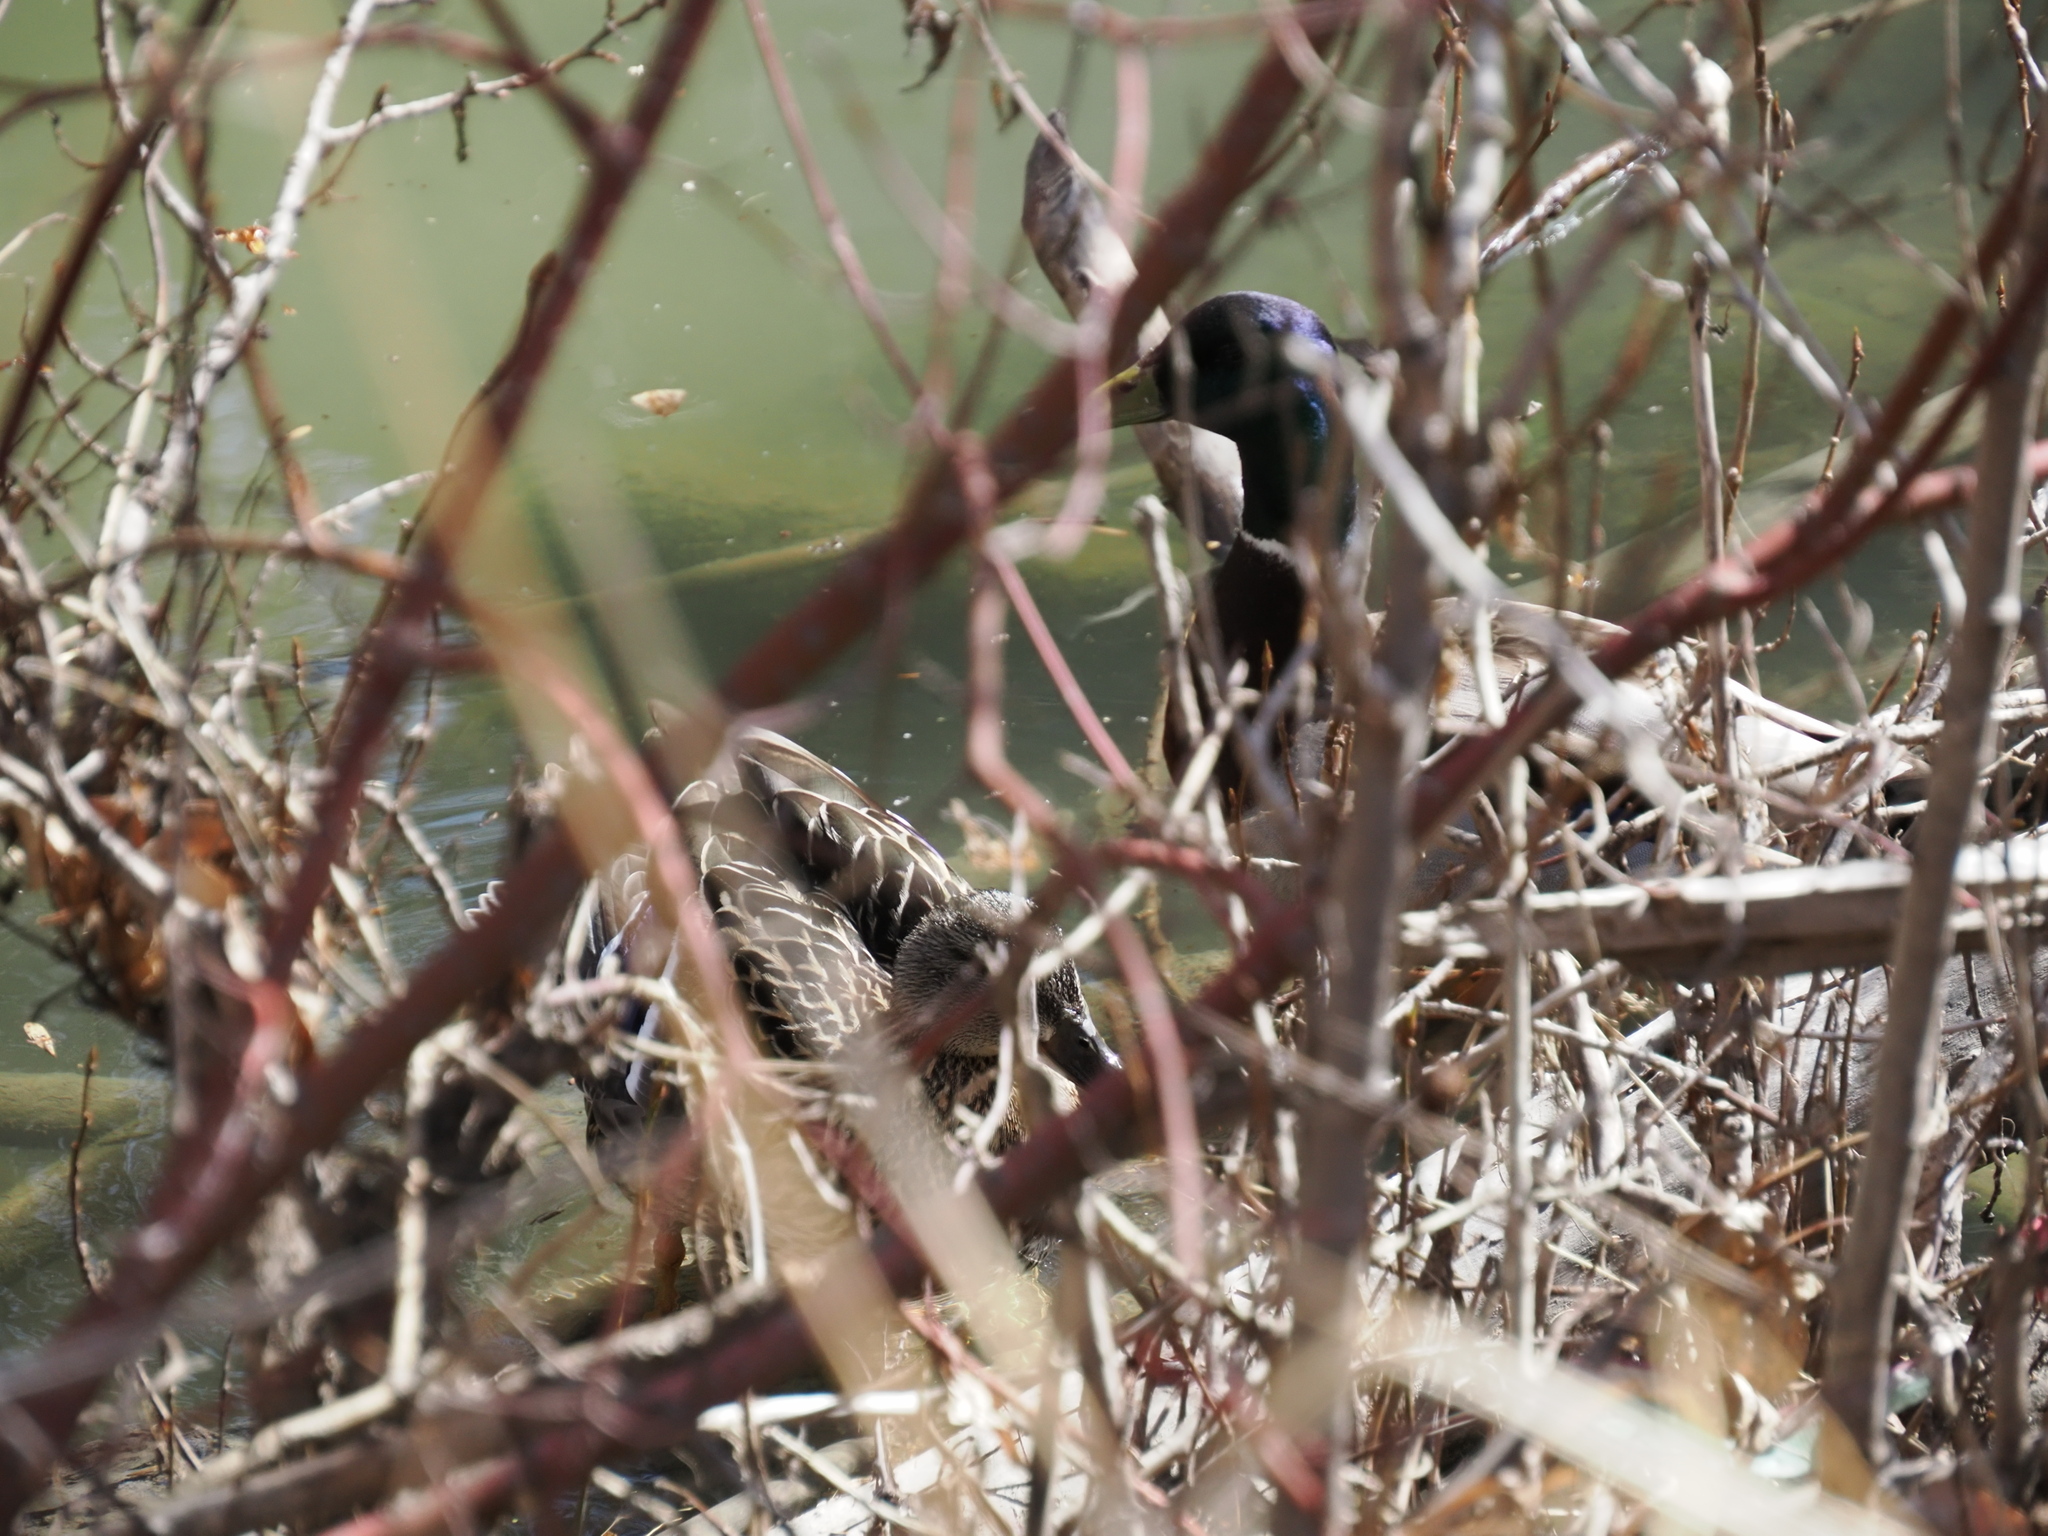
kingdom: Animalia
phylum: Chordata
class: Aves
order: Anseriformes
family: Anatidae
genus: Anas
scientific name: Anas platyrhynchos
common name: Mallard
